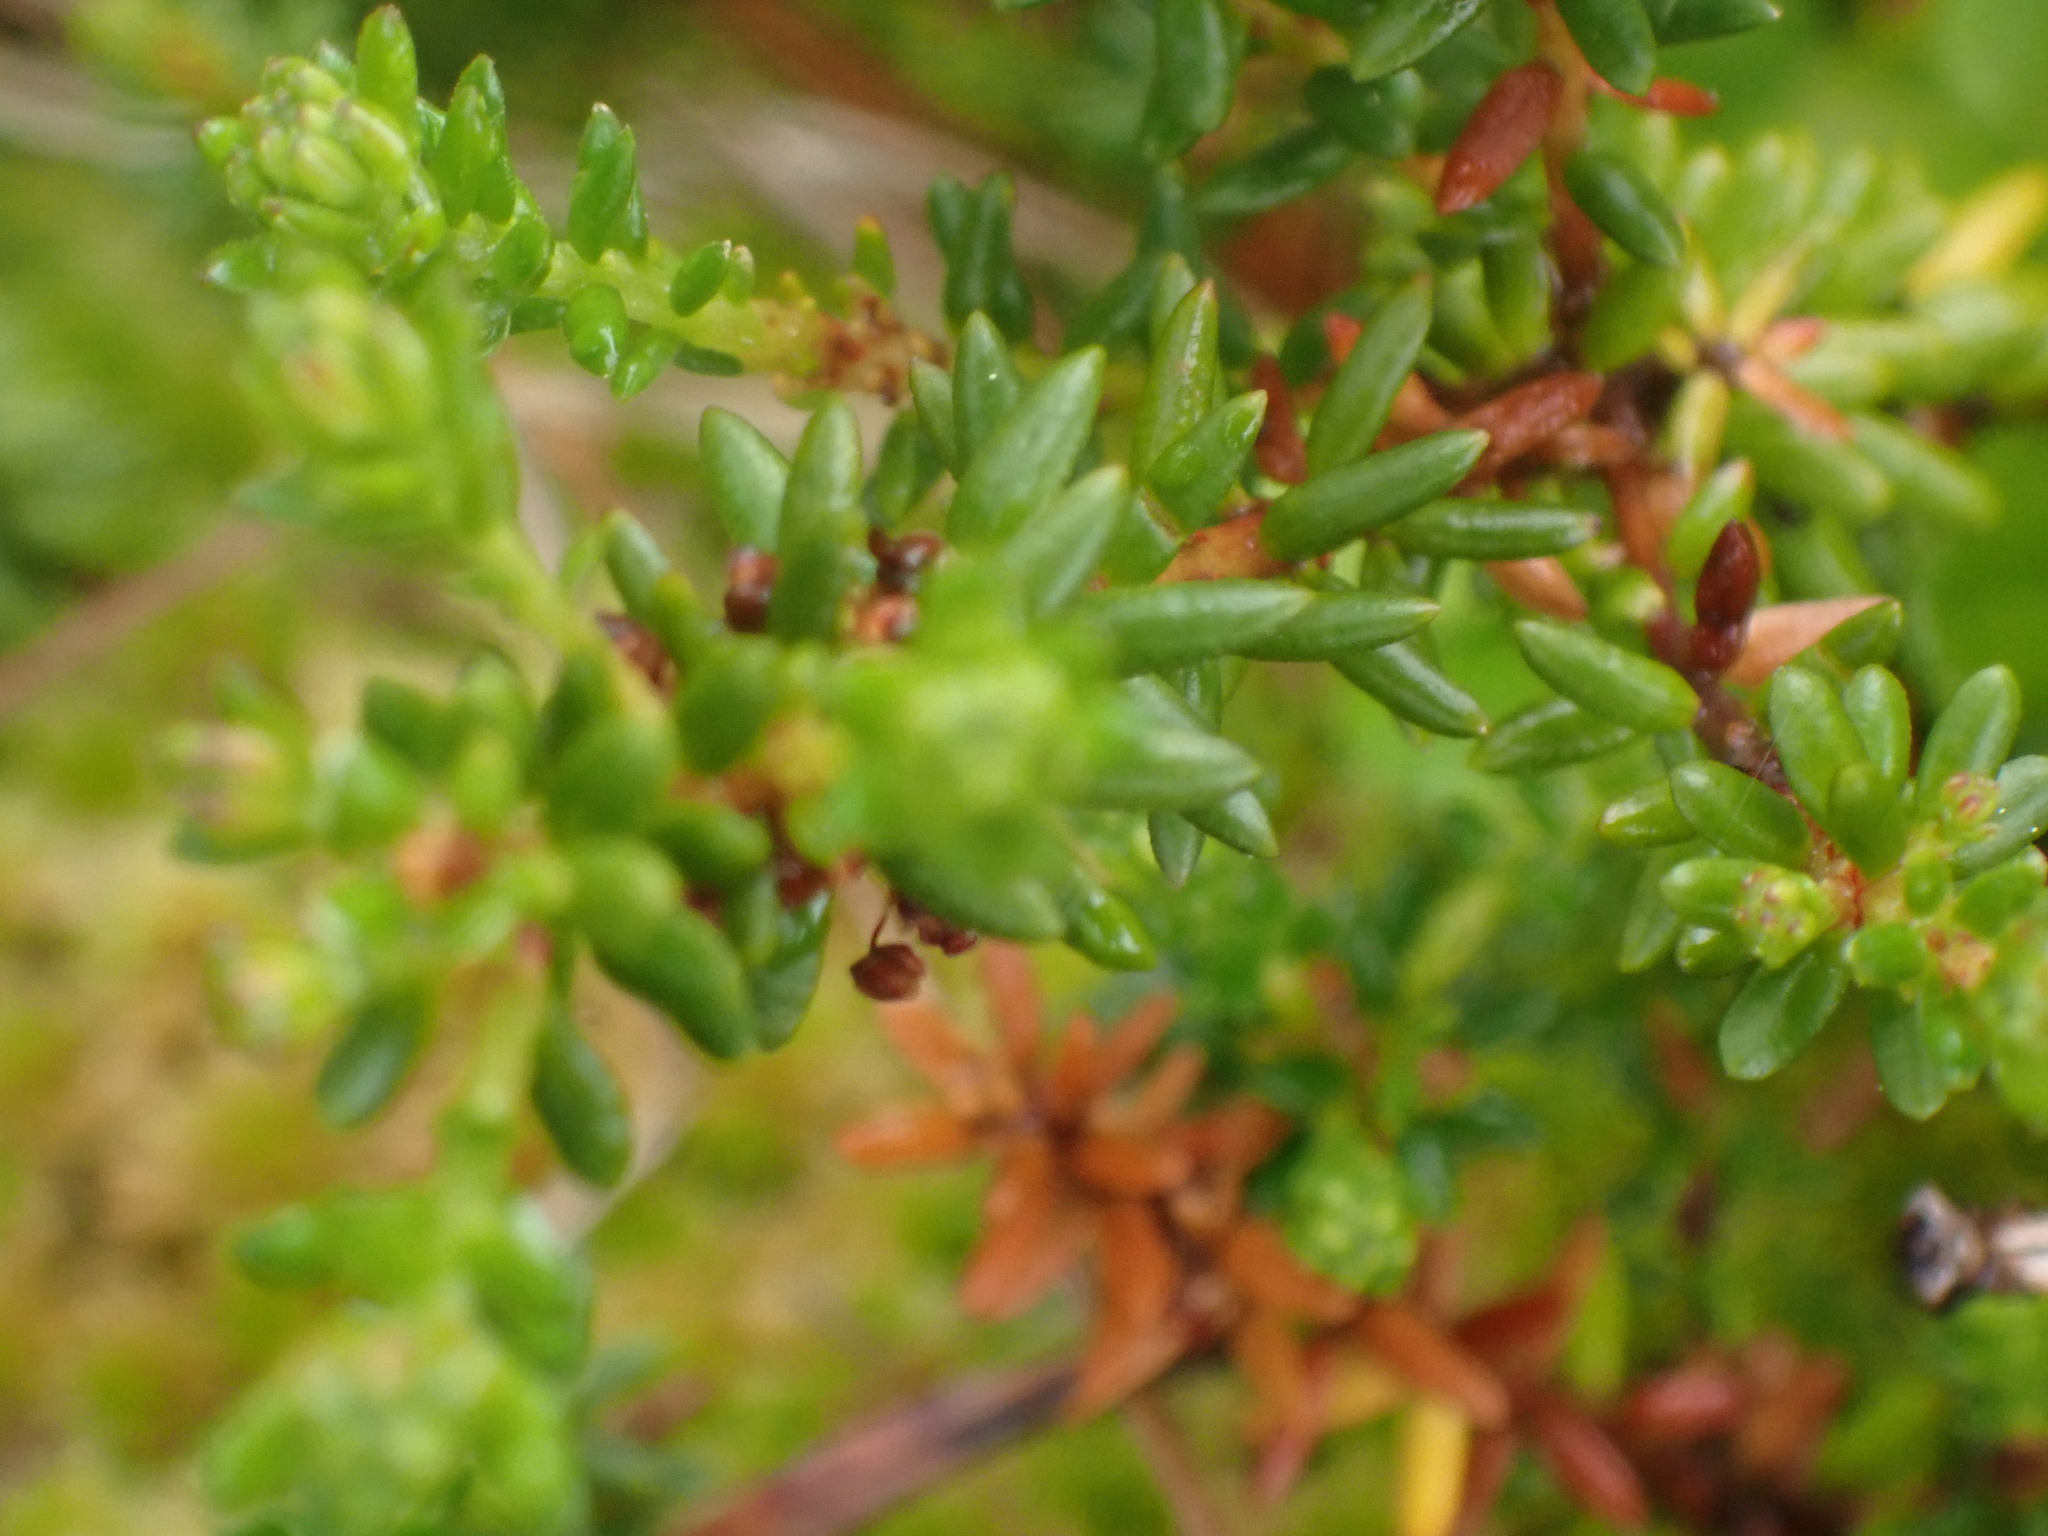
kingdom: Plantae
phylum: Tracheophyta
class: Magnoliopsida
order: Ericales
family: Ericaceae
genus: Empetrum
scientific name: Empetrum nigrum
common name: Black crowberry
